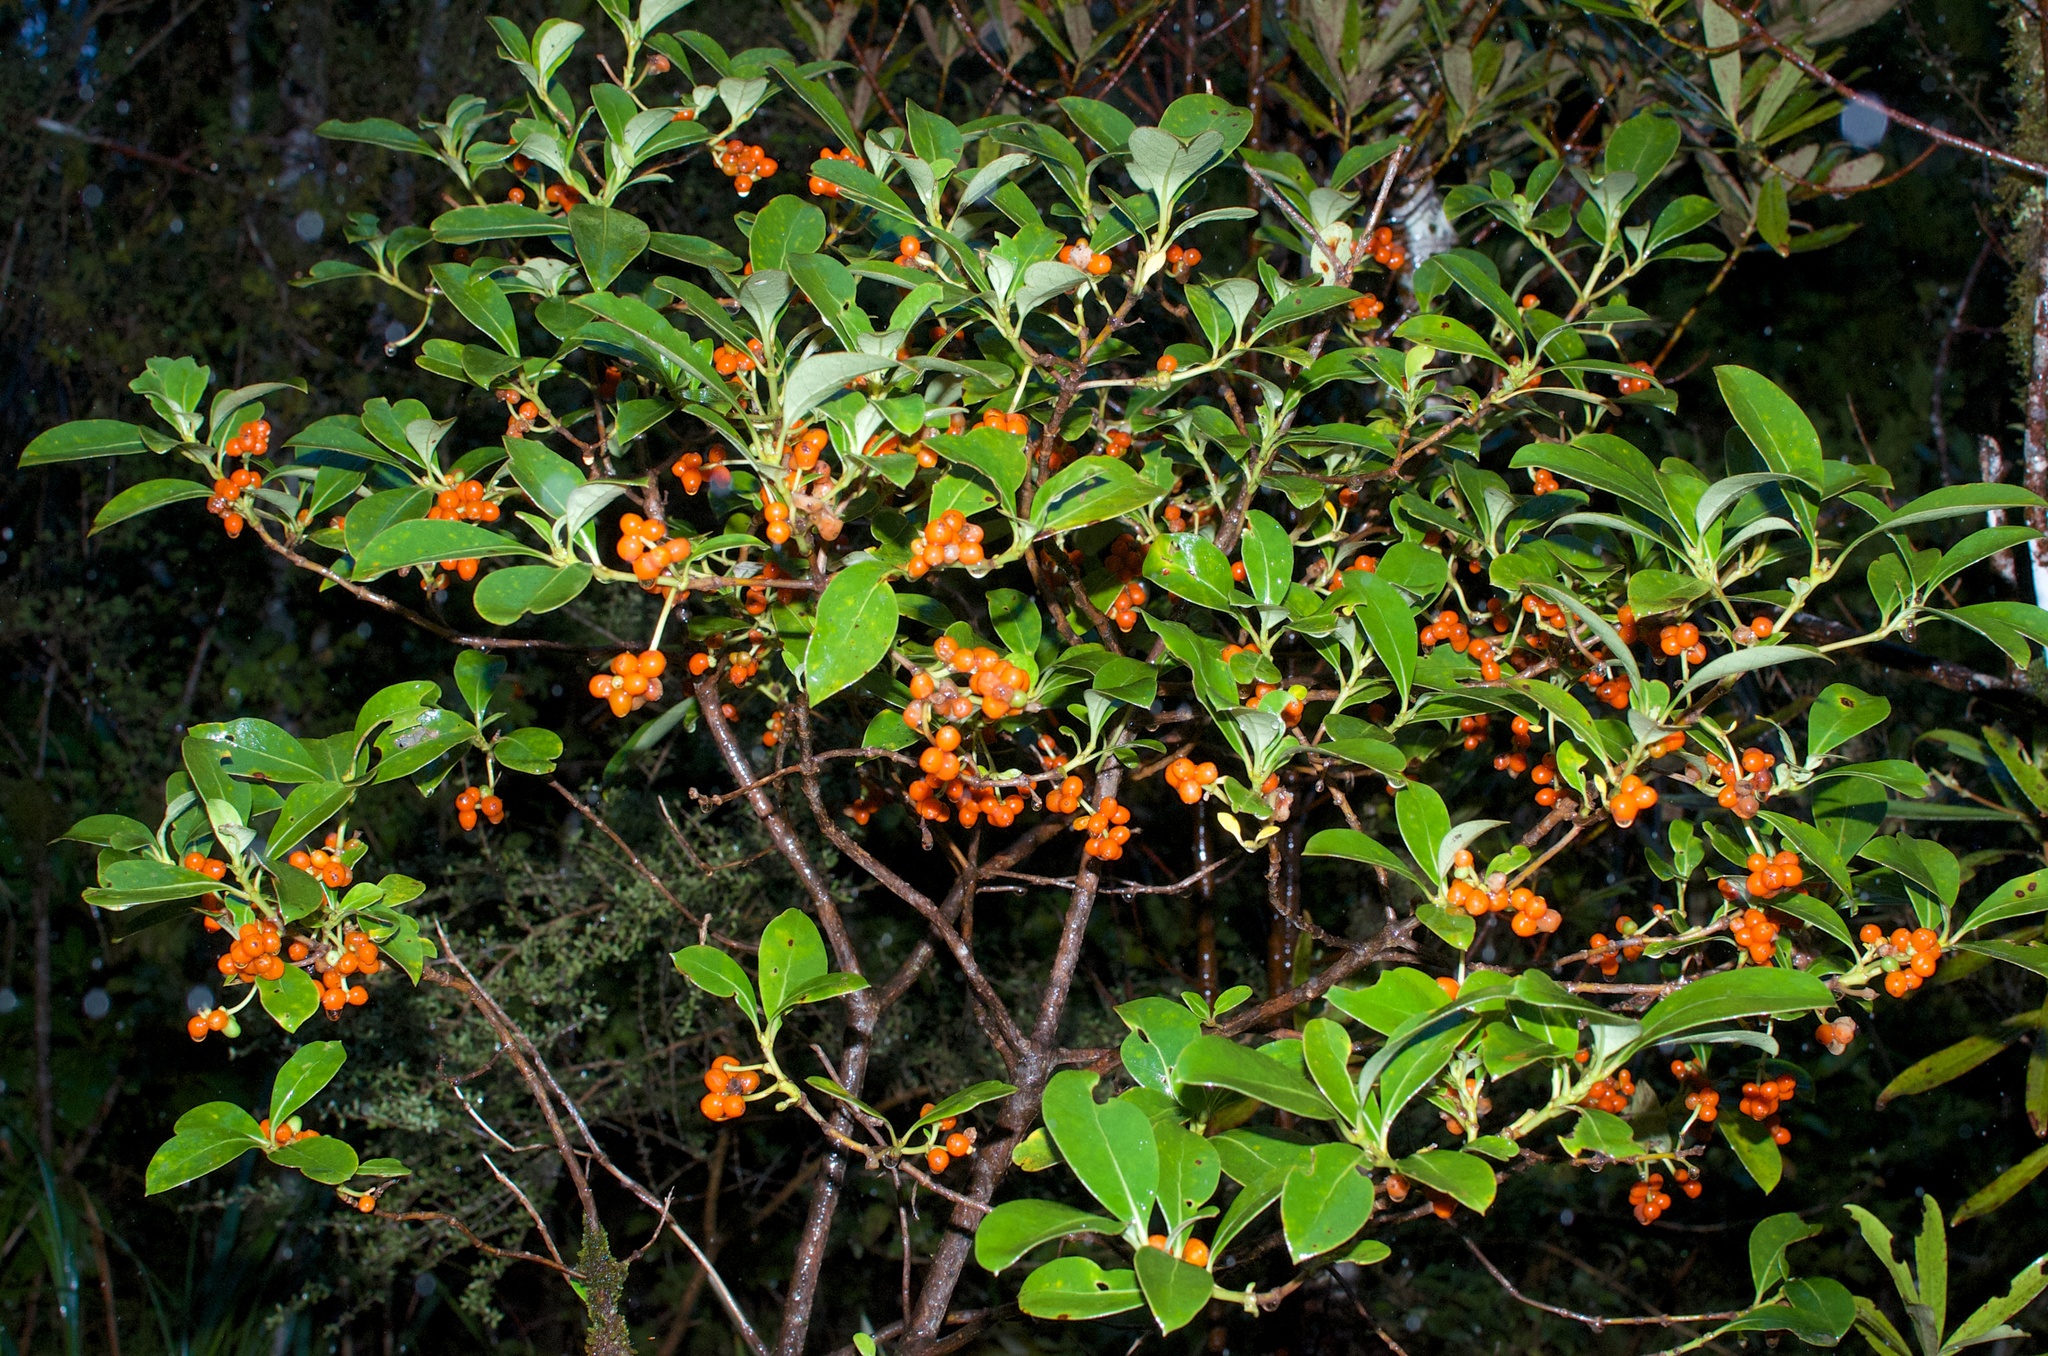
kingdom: Plantae
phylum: Tracheophyta
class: Magnoliopsida
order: Gentianales
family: Rubiaceae
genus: Coprosma
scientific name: Coprosma lucida
